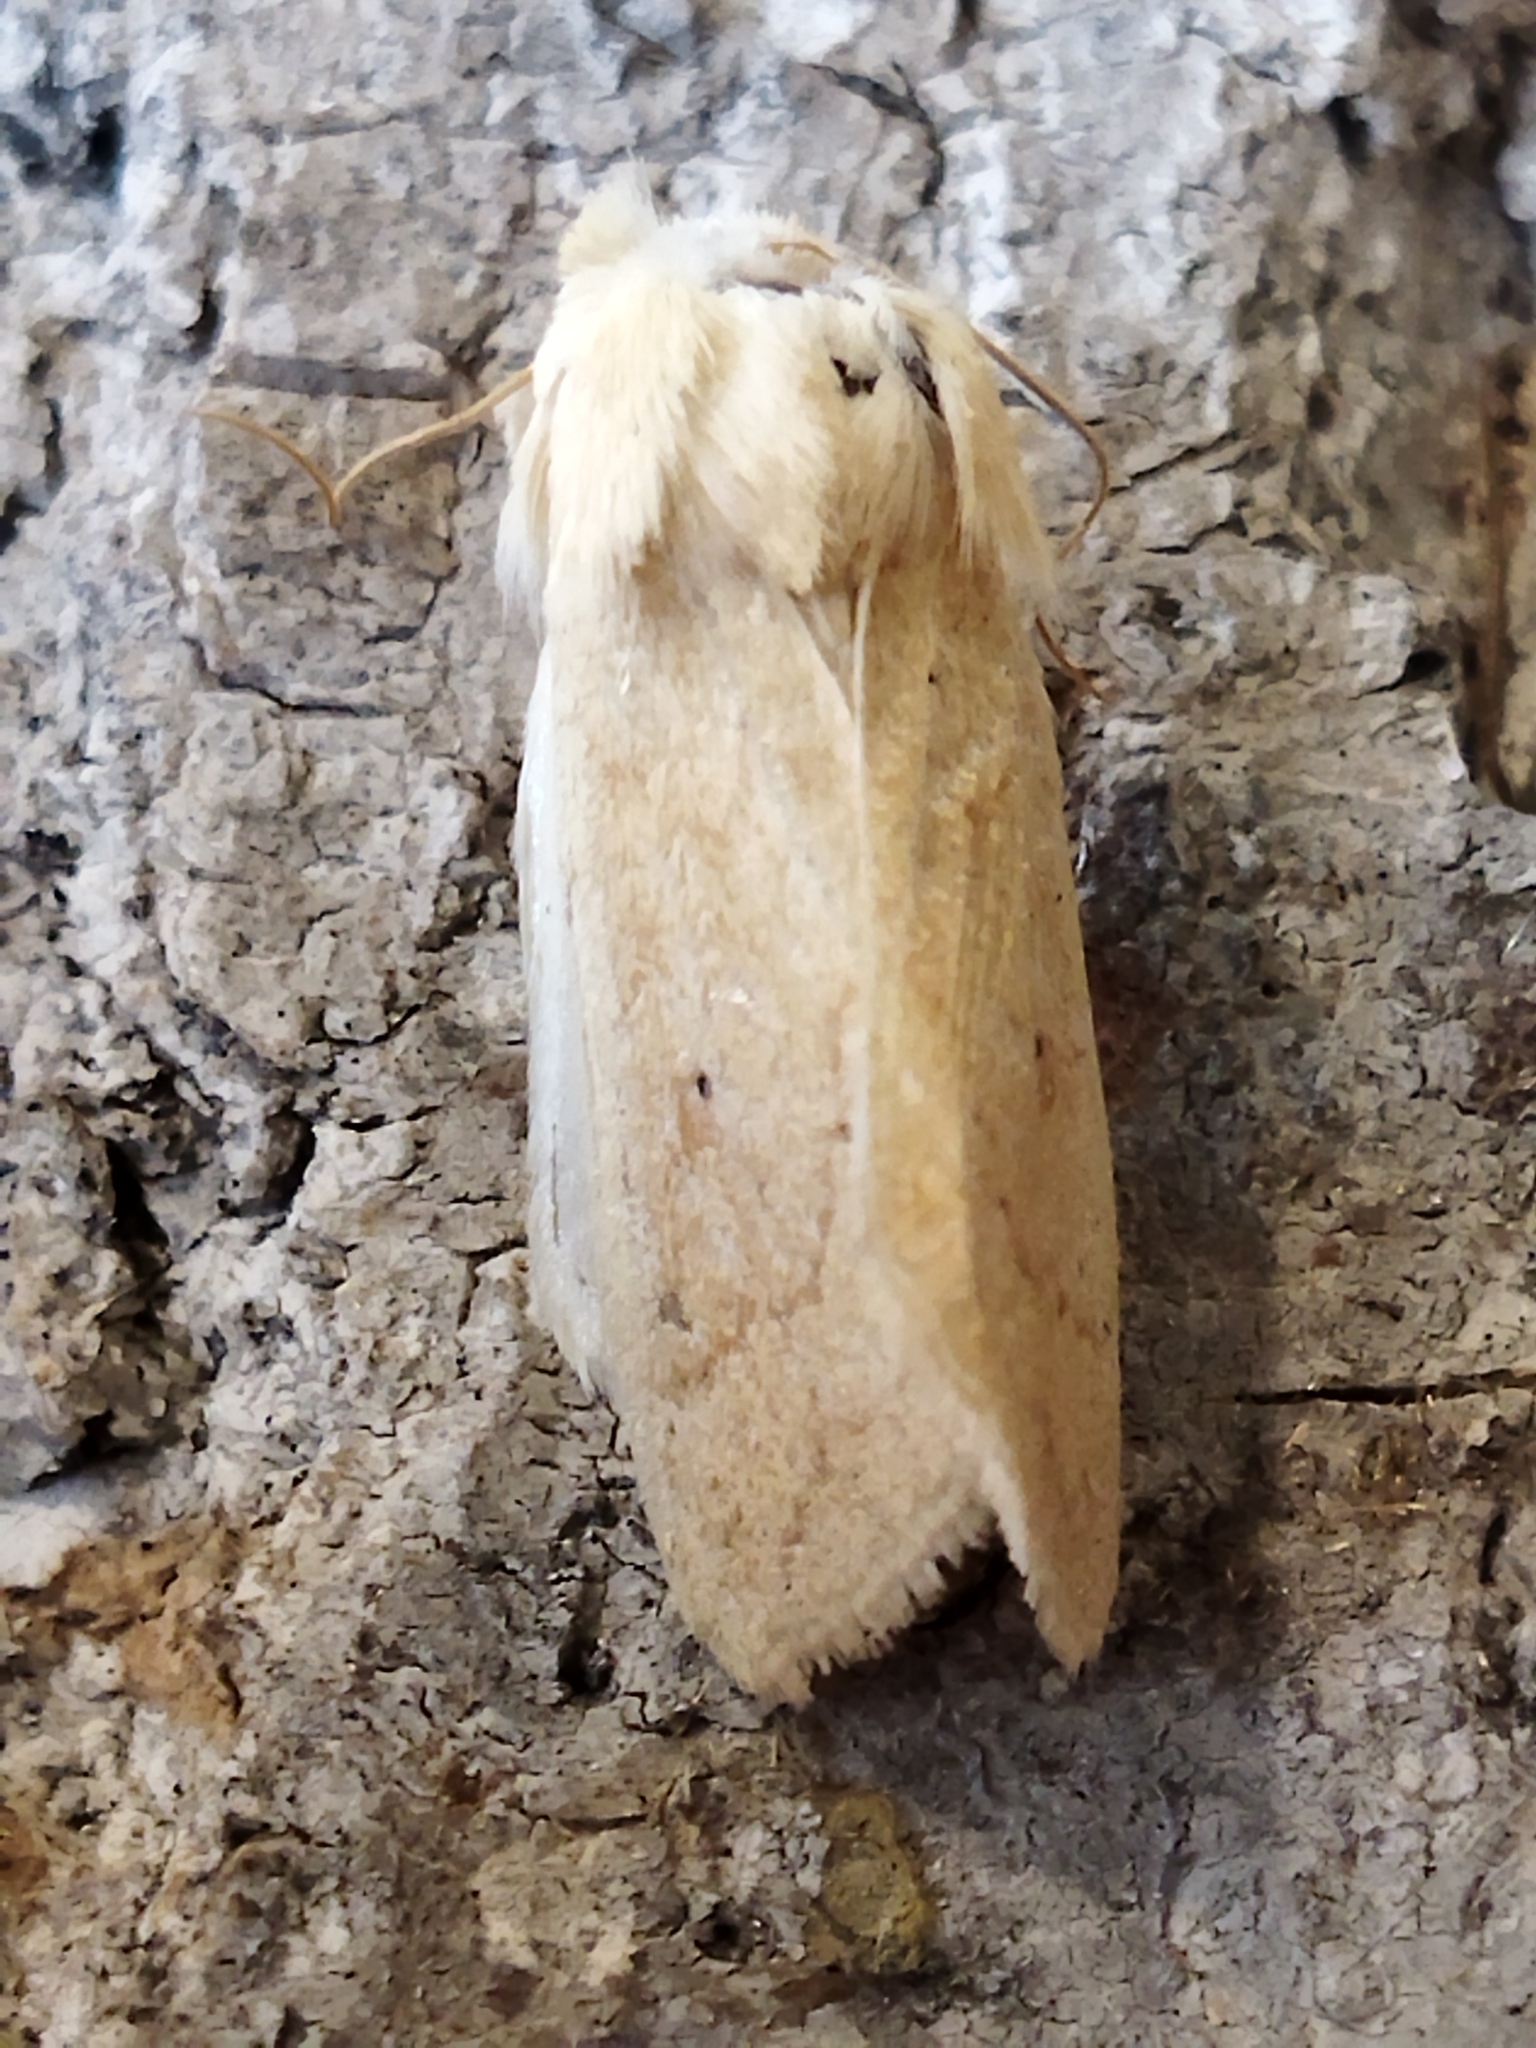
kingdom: Animalia
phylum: Arthropoda
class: Insecta
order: Lepidoptera
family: Noctuidae
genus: Mythimna
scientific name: Mythimna vitellina
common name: Delicate
